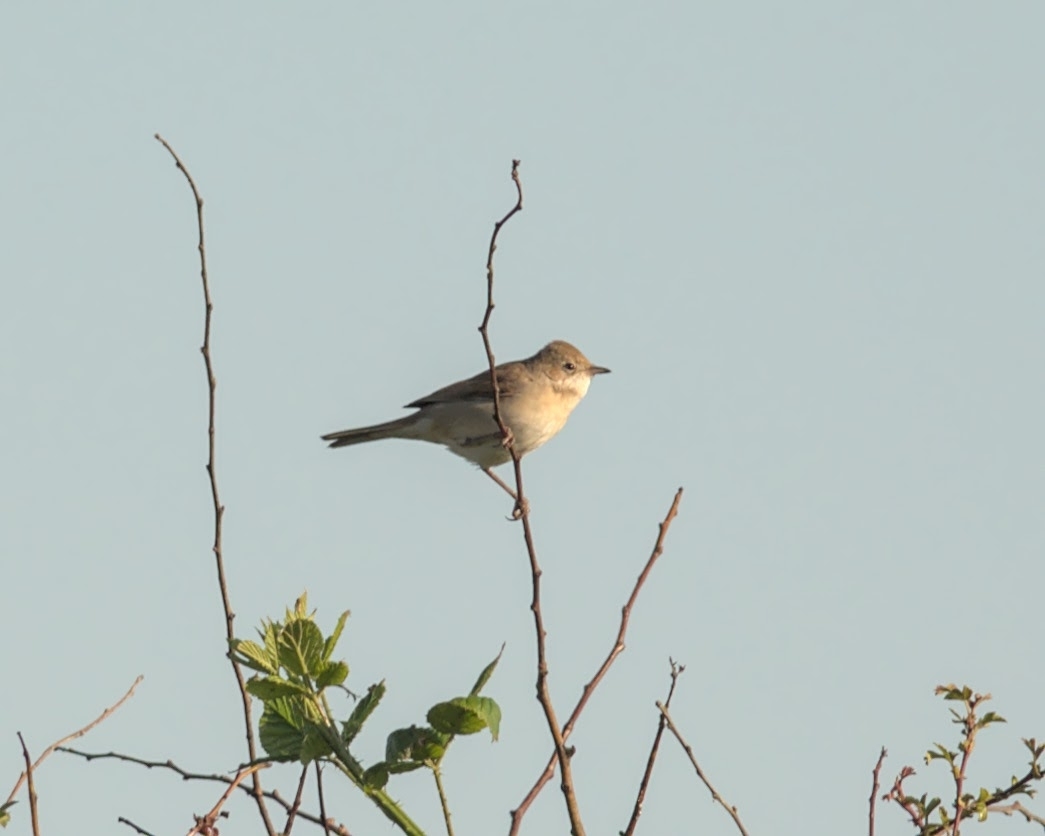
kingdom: Animalia
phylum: Chordata
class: Aves
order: Passeriformes
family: Sylviidae
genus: Sylvia
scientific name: Sylvia communis
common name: Common whitethroat
